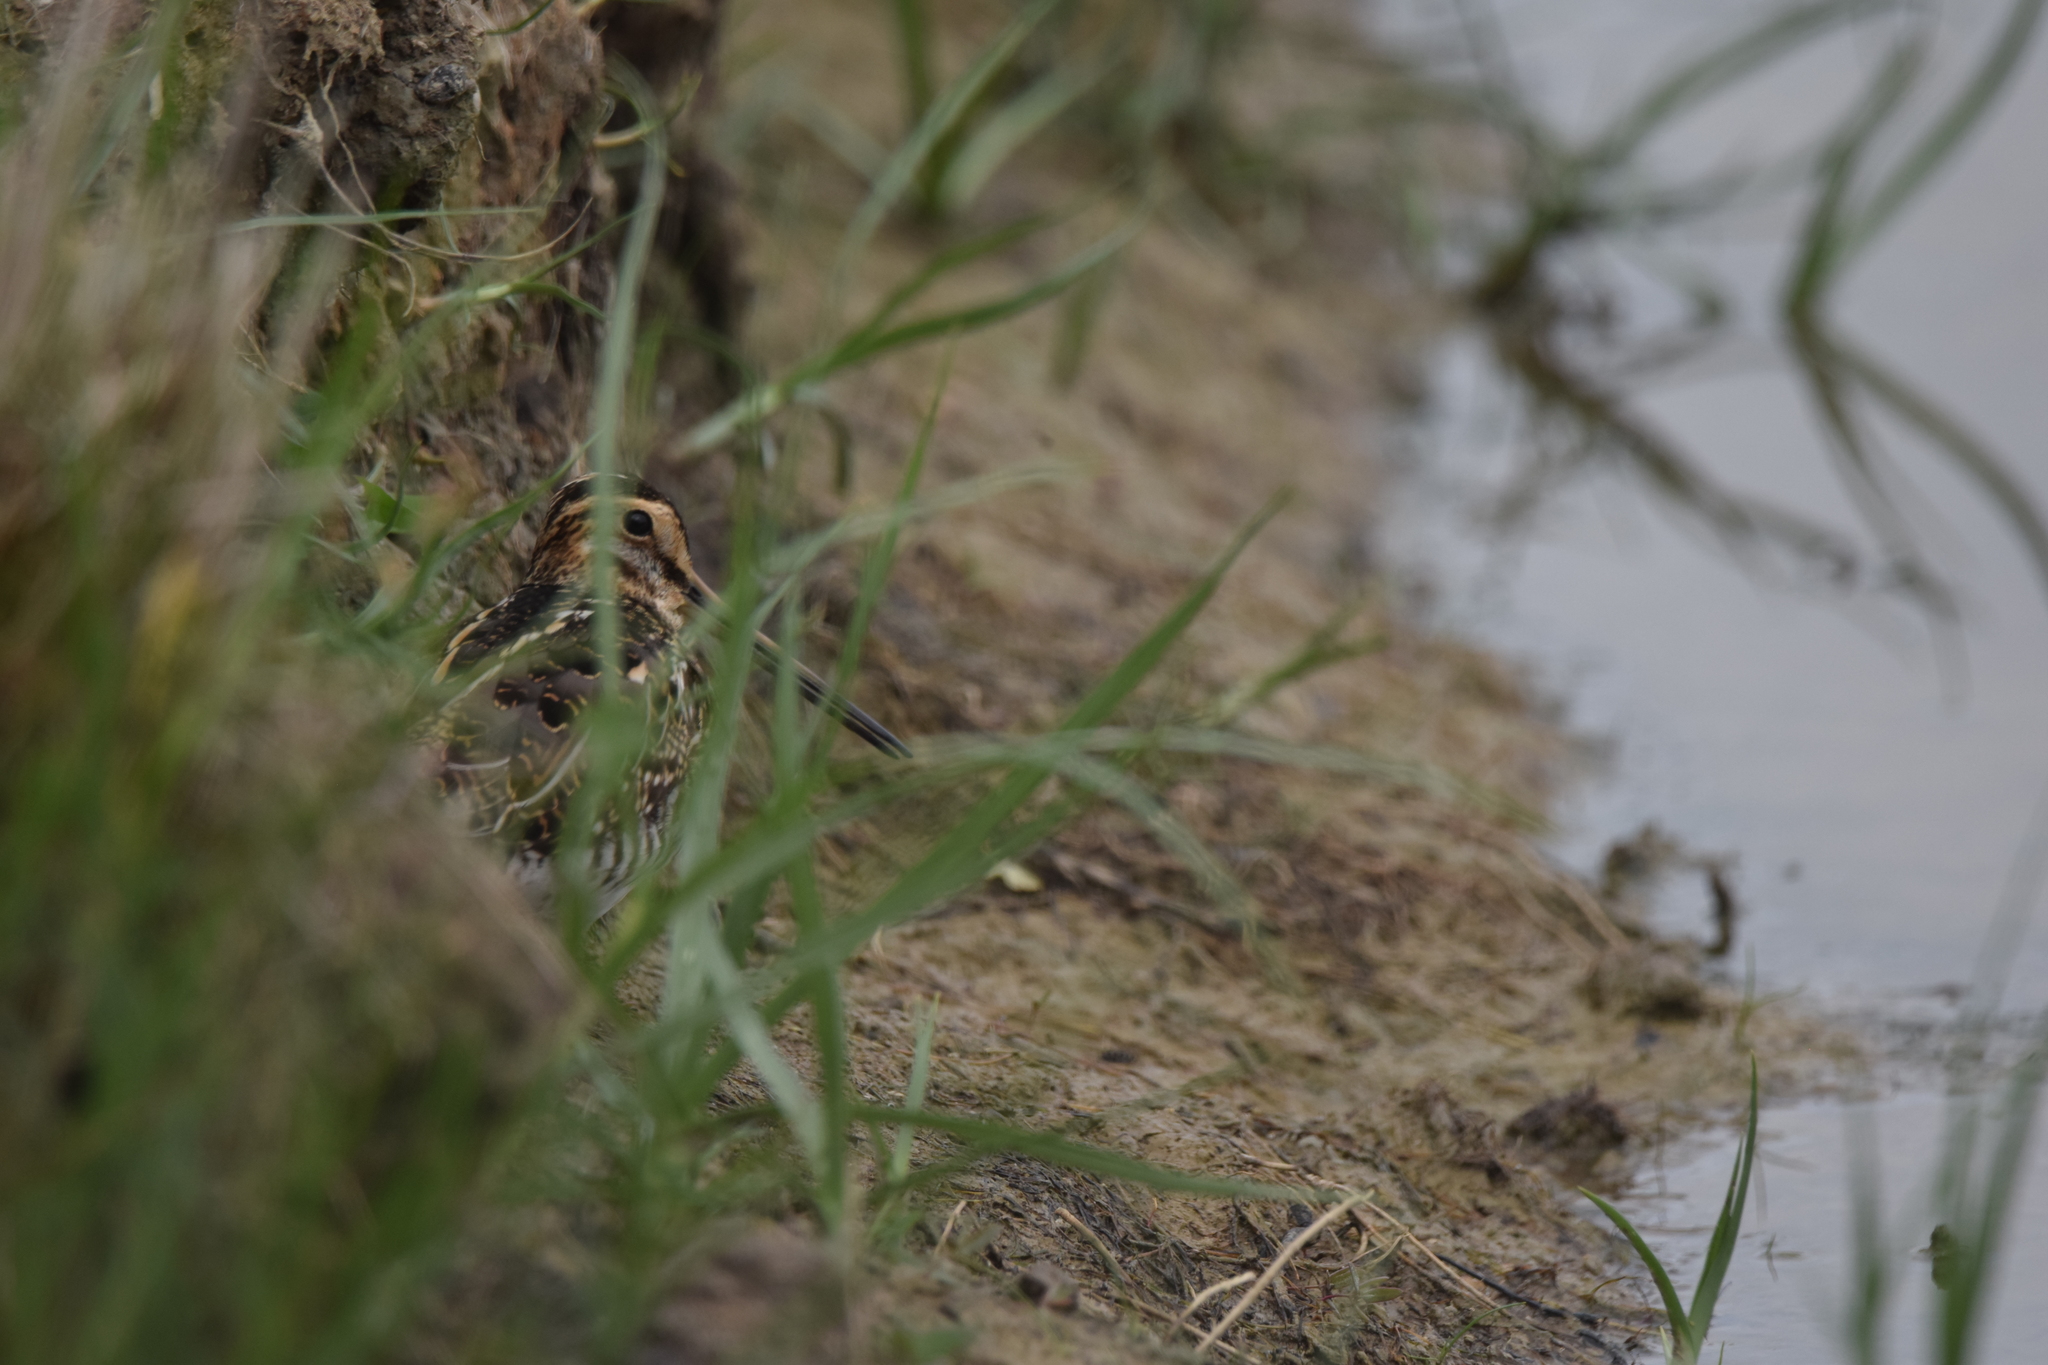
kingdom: Animalia
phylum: Chordata
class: Aves
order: Charadriiformes
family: Scolopacidae
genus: Gallinago
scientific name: Gallinago gallinago
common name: Common snipe
